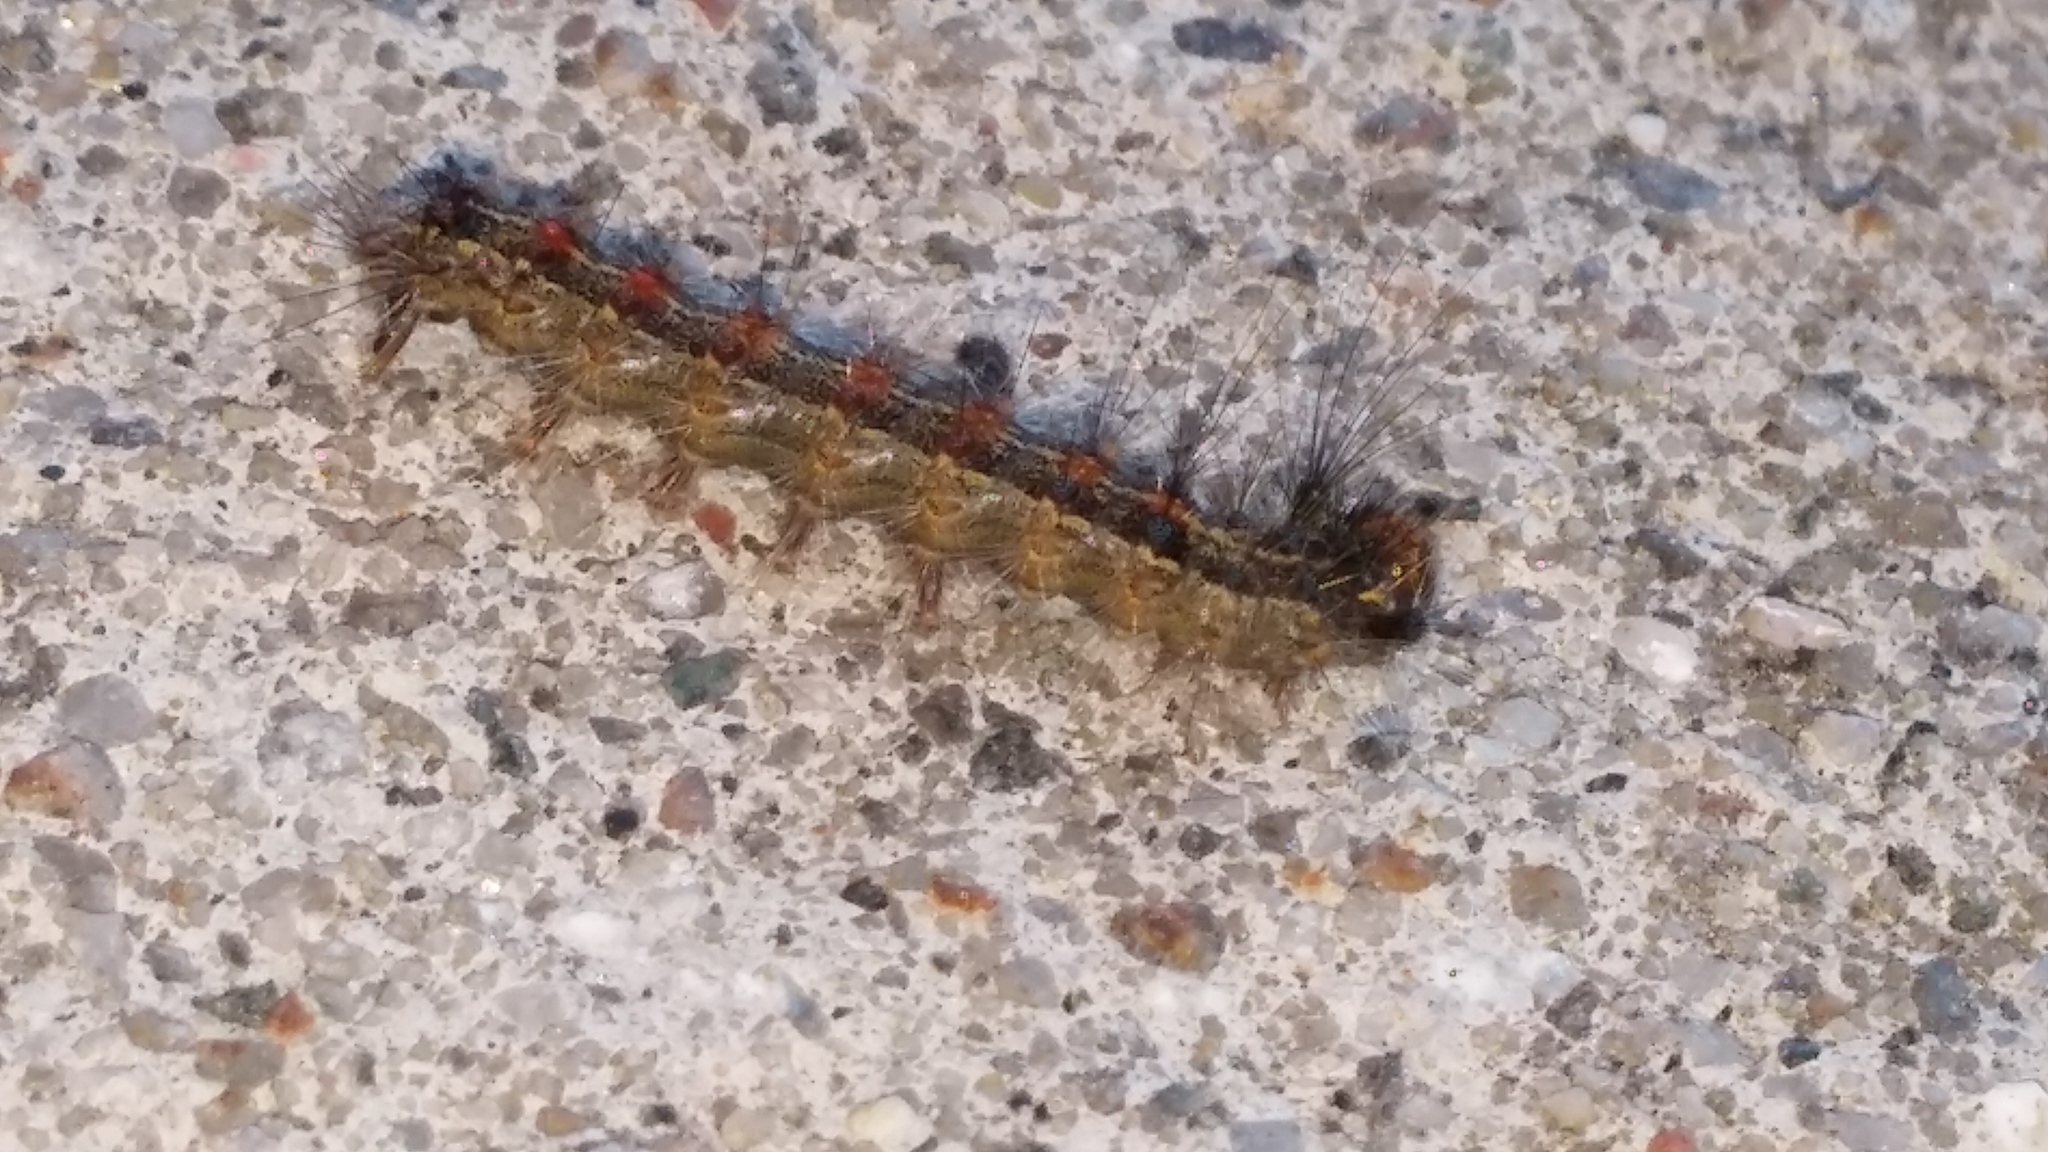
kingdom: Animalia
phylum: Arthropoda
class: Insecta
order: Lepidoptera
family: Erebidae
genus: Lymantria
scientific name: Lymantria dispar
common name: Gypsy moth
